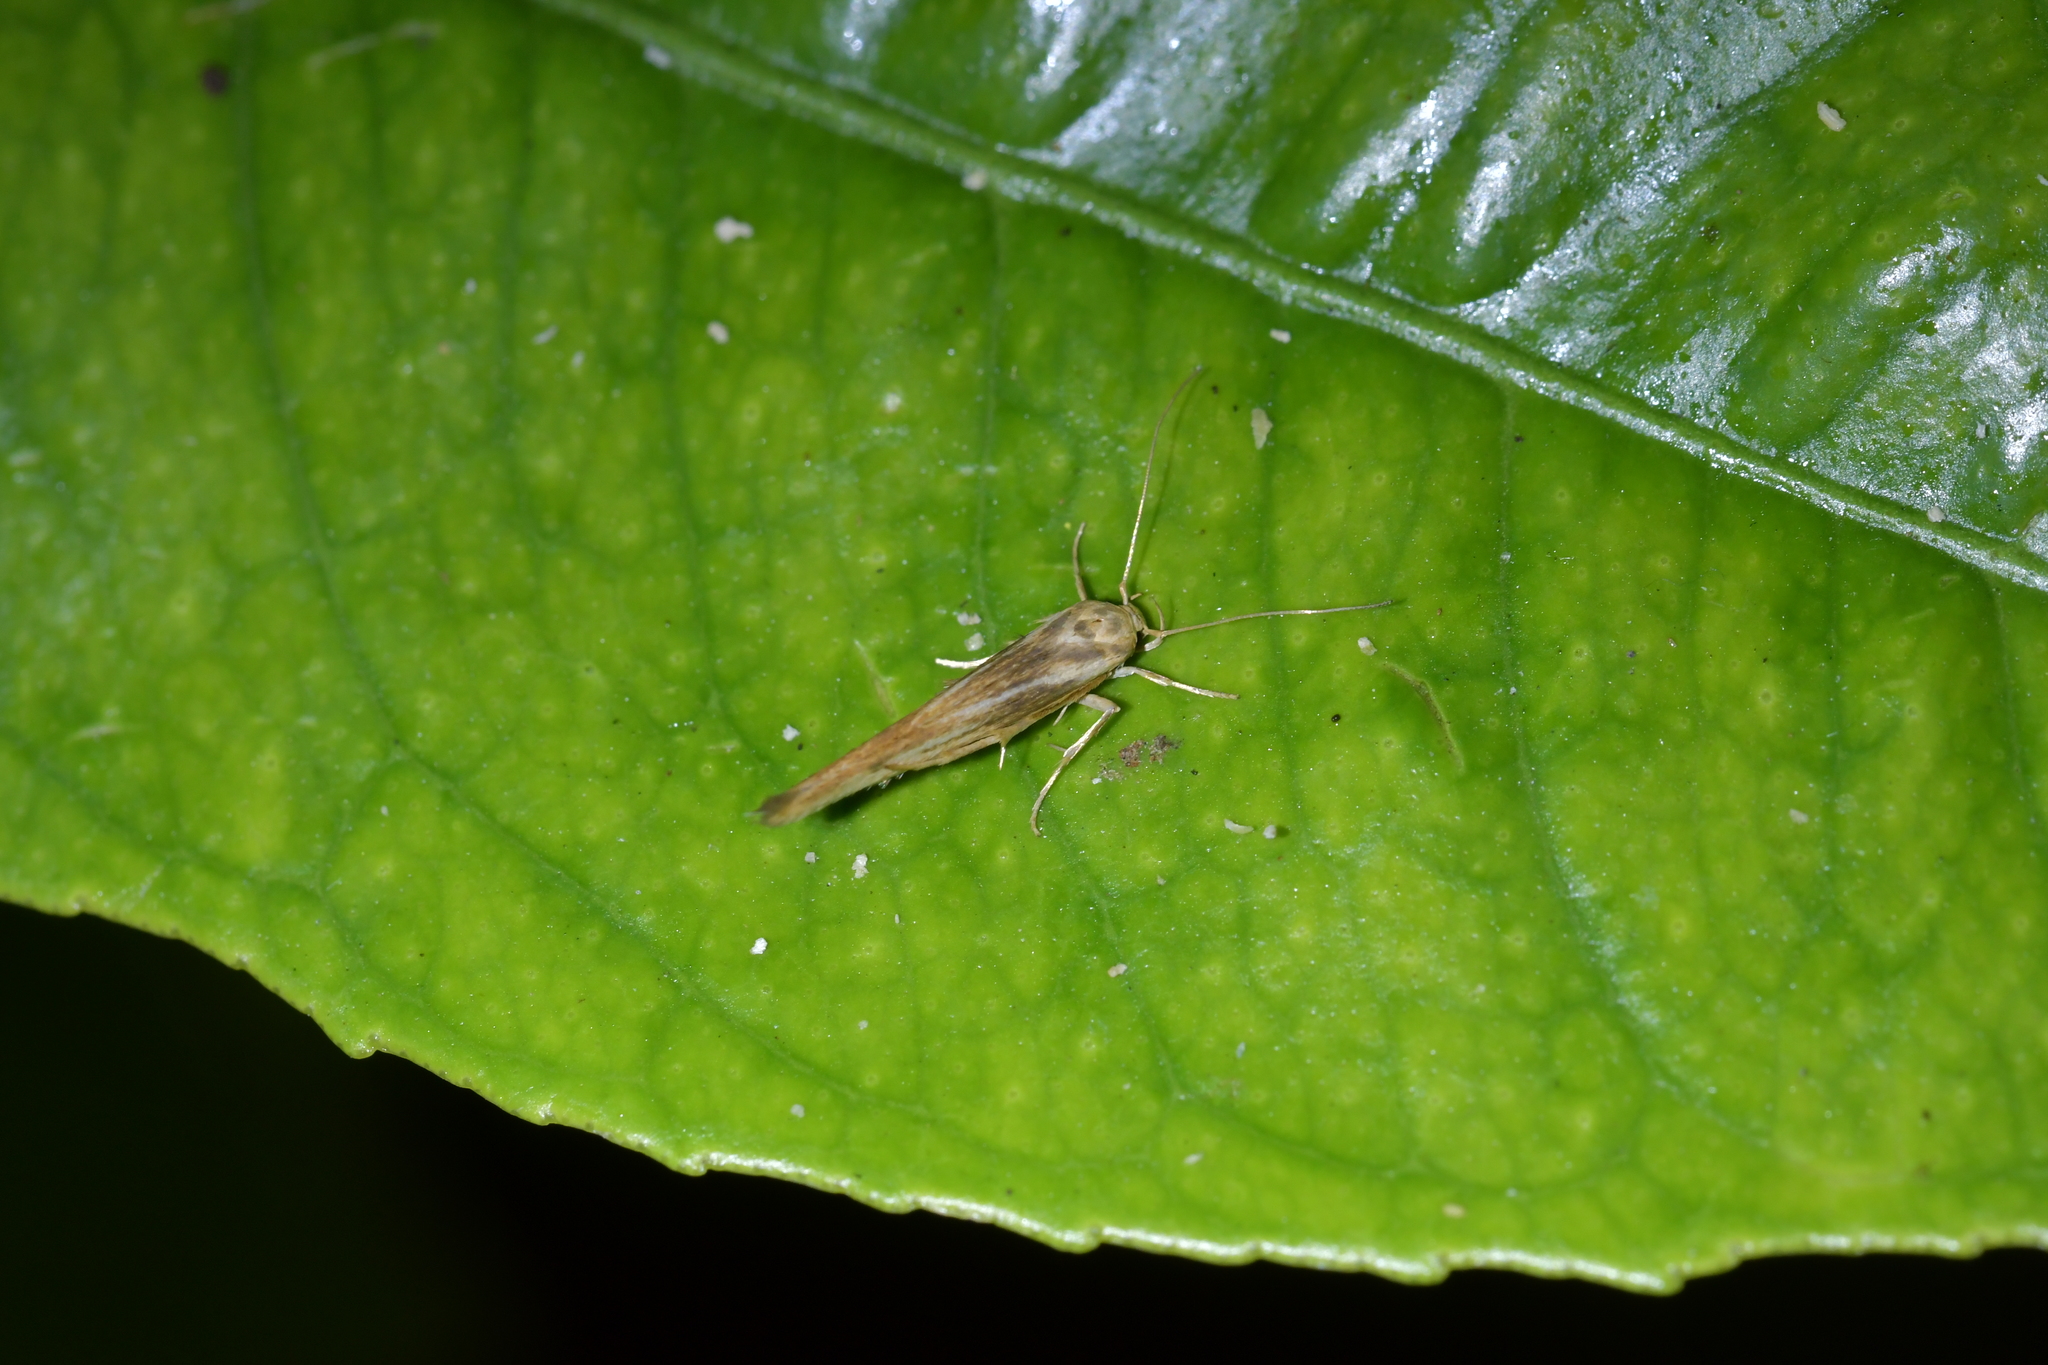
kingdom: Animalia
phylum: Arthropoda
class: Insecta
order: Lepidoptera
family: Stathmopodidae
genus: Stathmopoda
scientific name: Stathmopoda aposema
